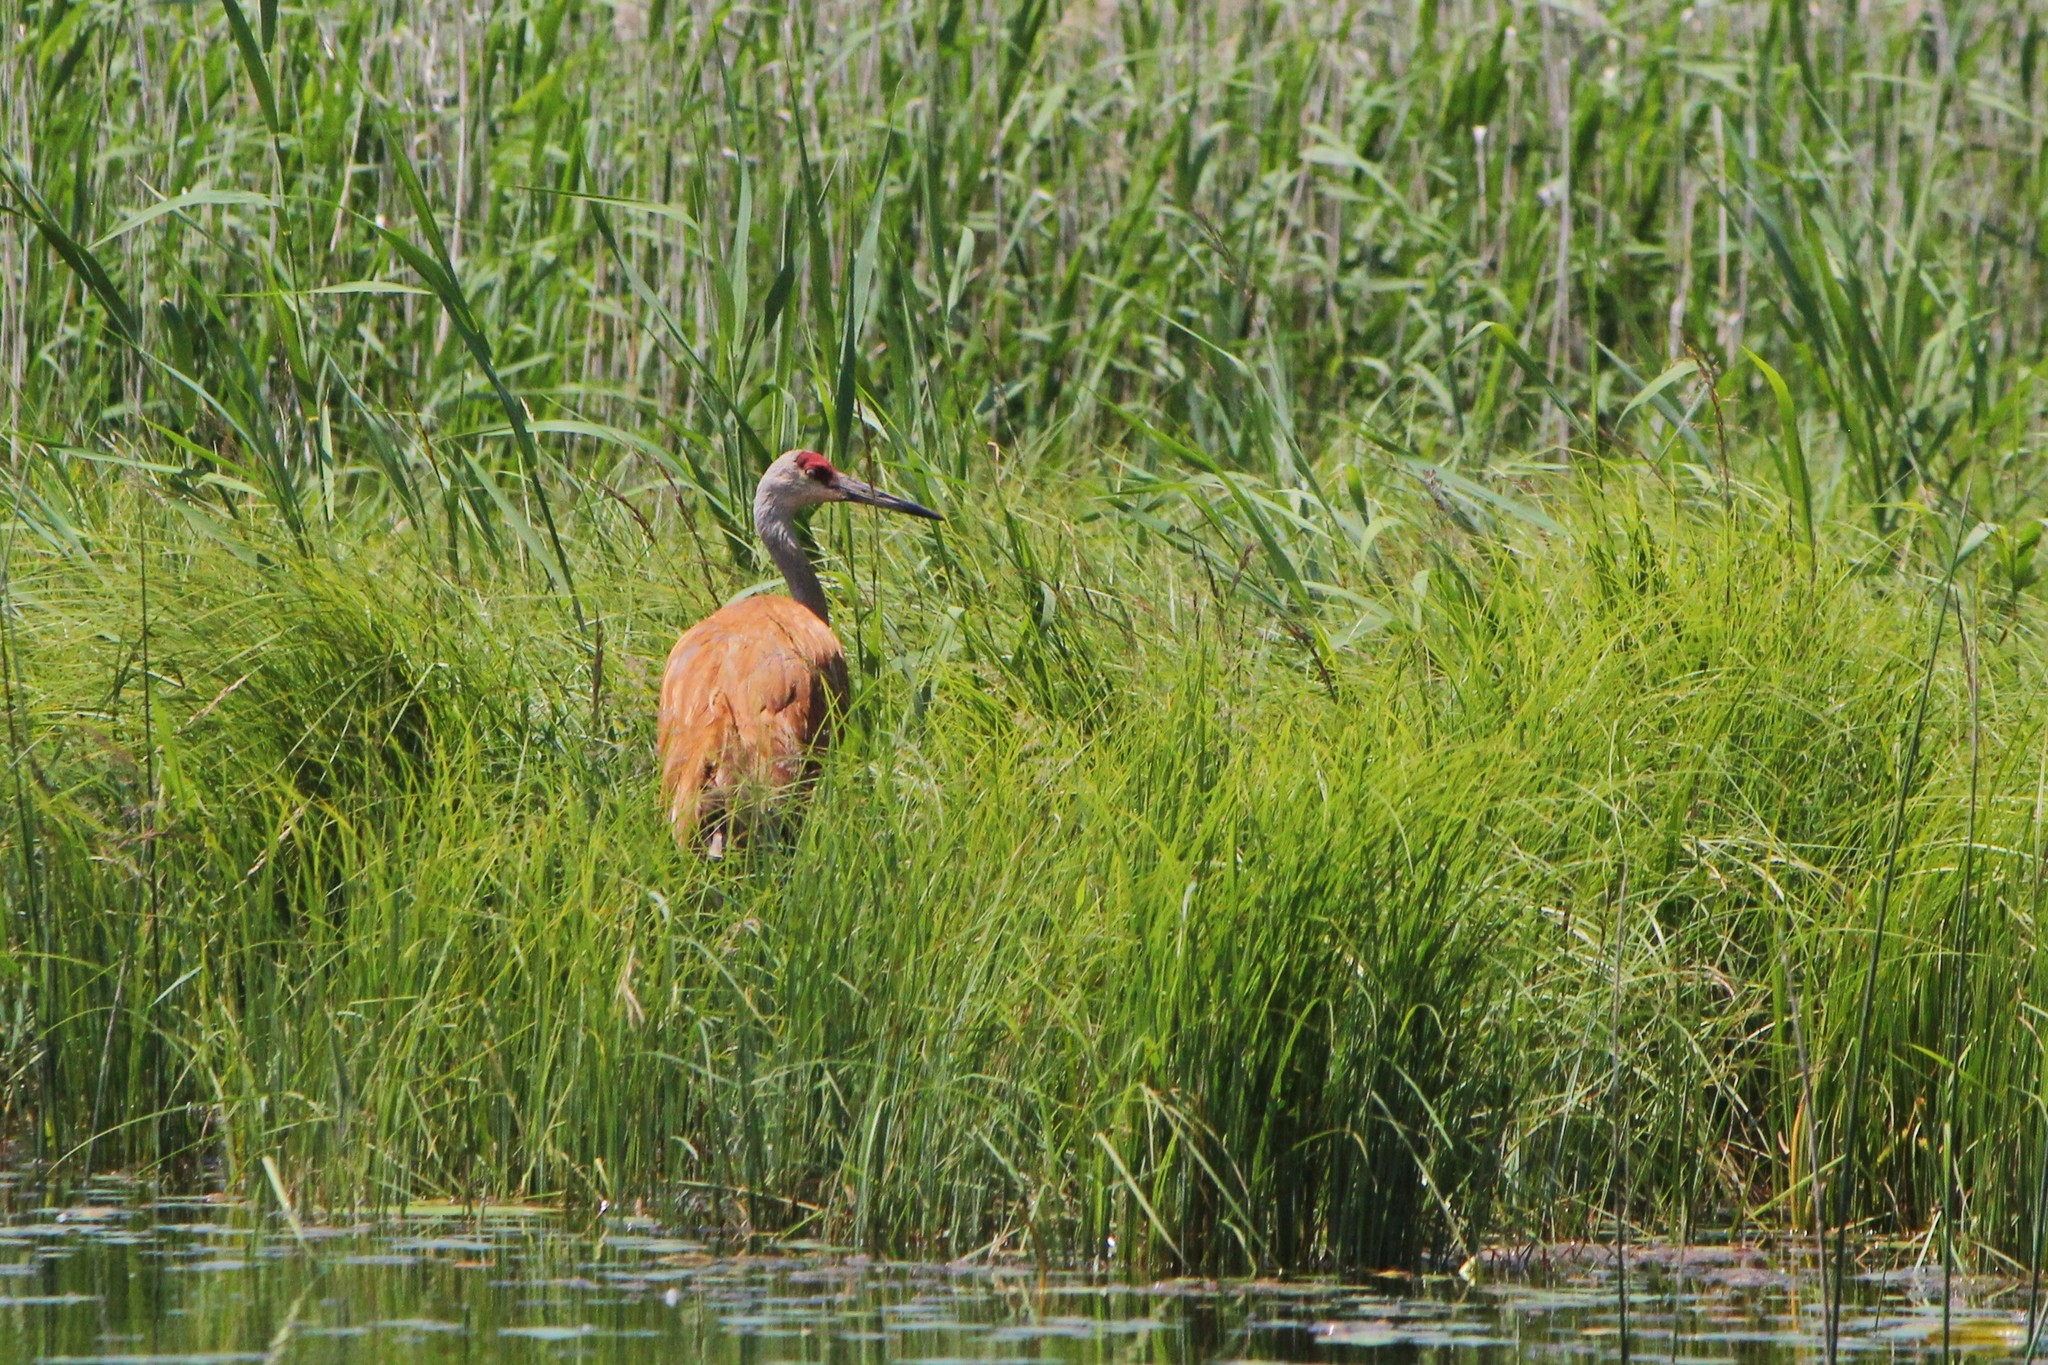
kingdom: Animalia
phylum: Chordata
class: Aves
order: Gruiformes
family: Gruidae
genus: Grus
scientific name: Grus canadensis
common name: Sandhill crane
